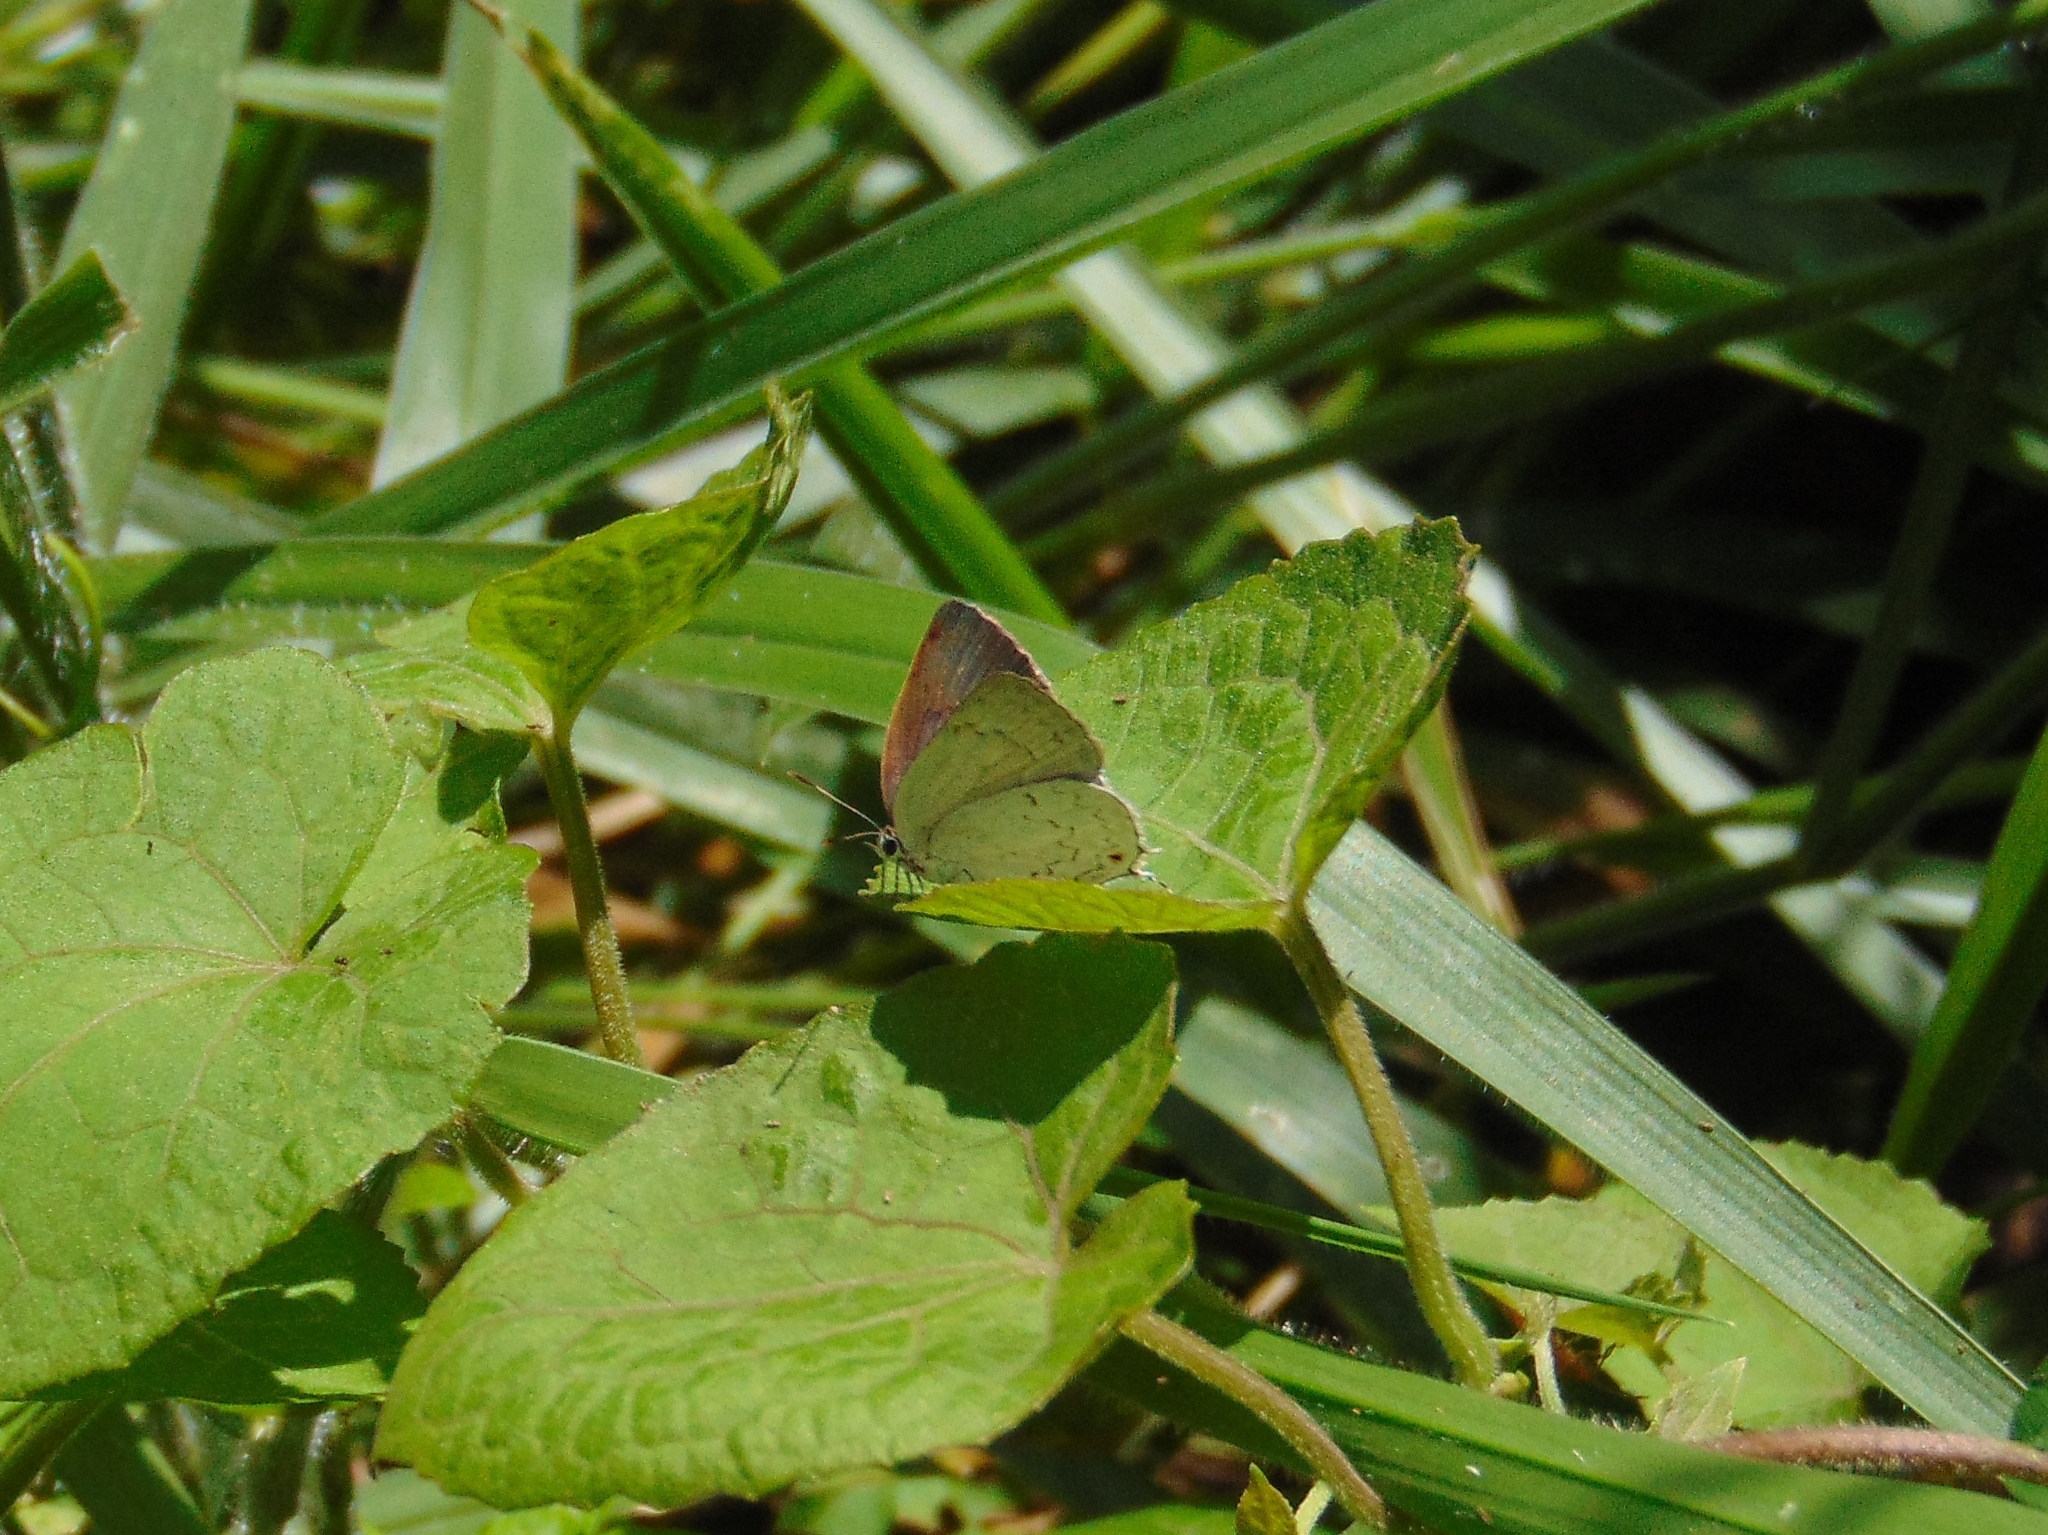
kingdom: Animalia
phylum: Arthropoda
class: Insecta
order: Lepidoptera
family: Lycaenidae
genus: Ostrinotes
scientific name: Ostrinotes
